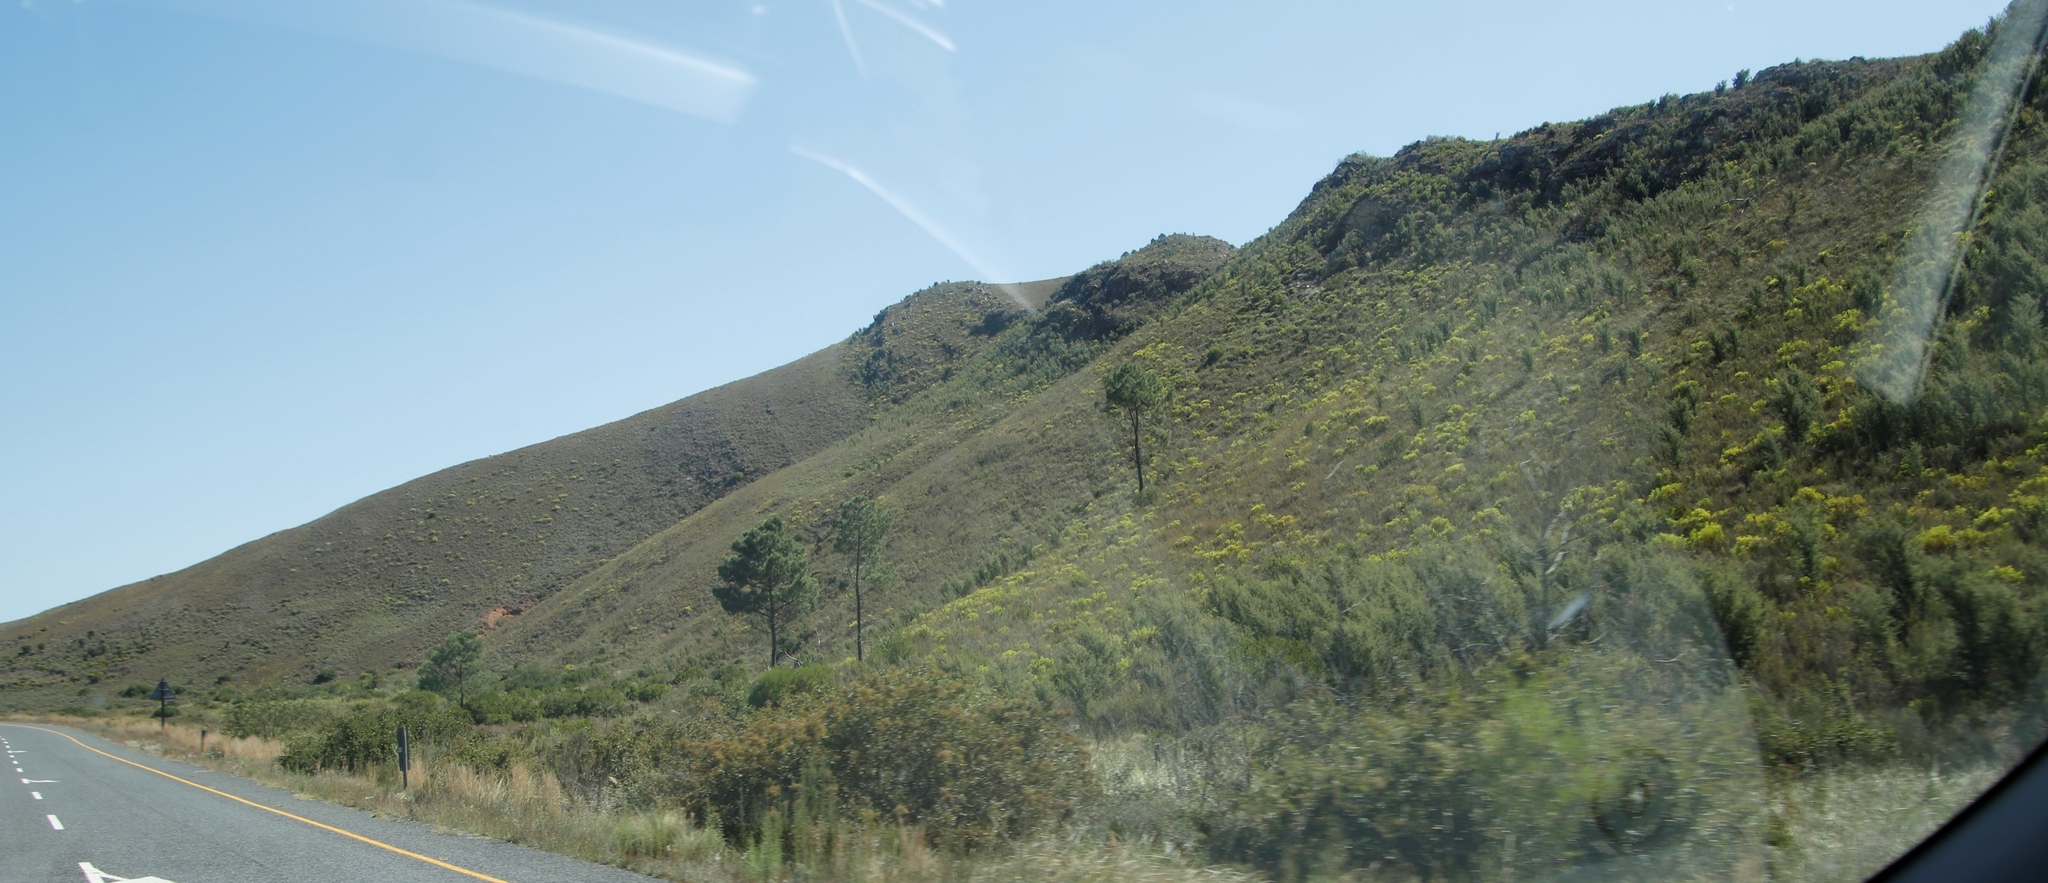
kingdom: Plantae
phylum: Tracheophyta
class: Magnoliopsida
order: Proteales
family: Proteaceae
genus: Hakea
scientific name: Hakea sericea
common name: Needle bush
